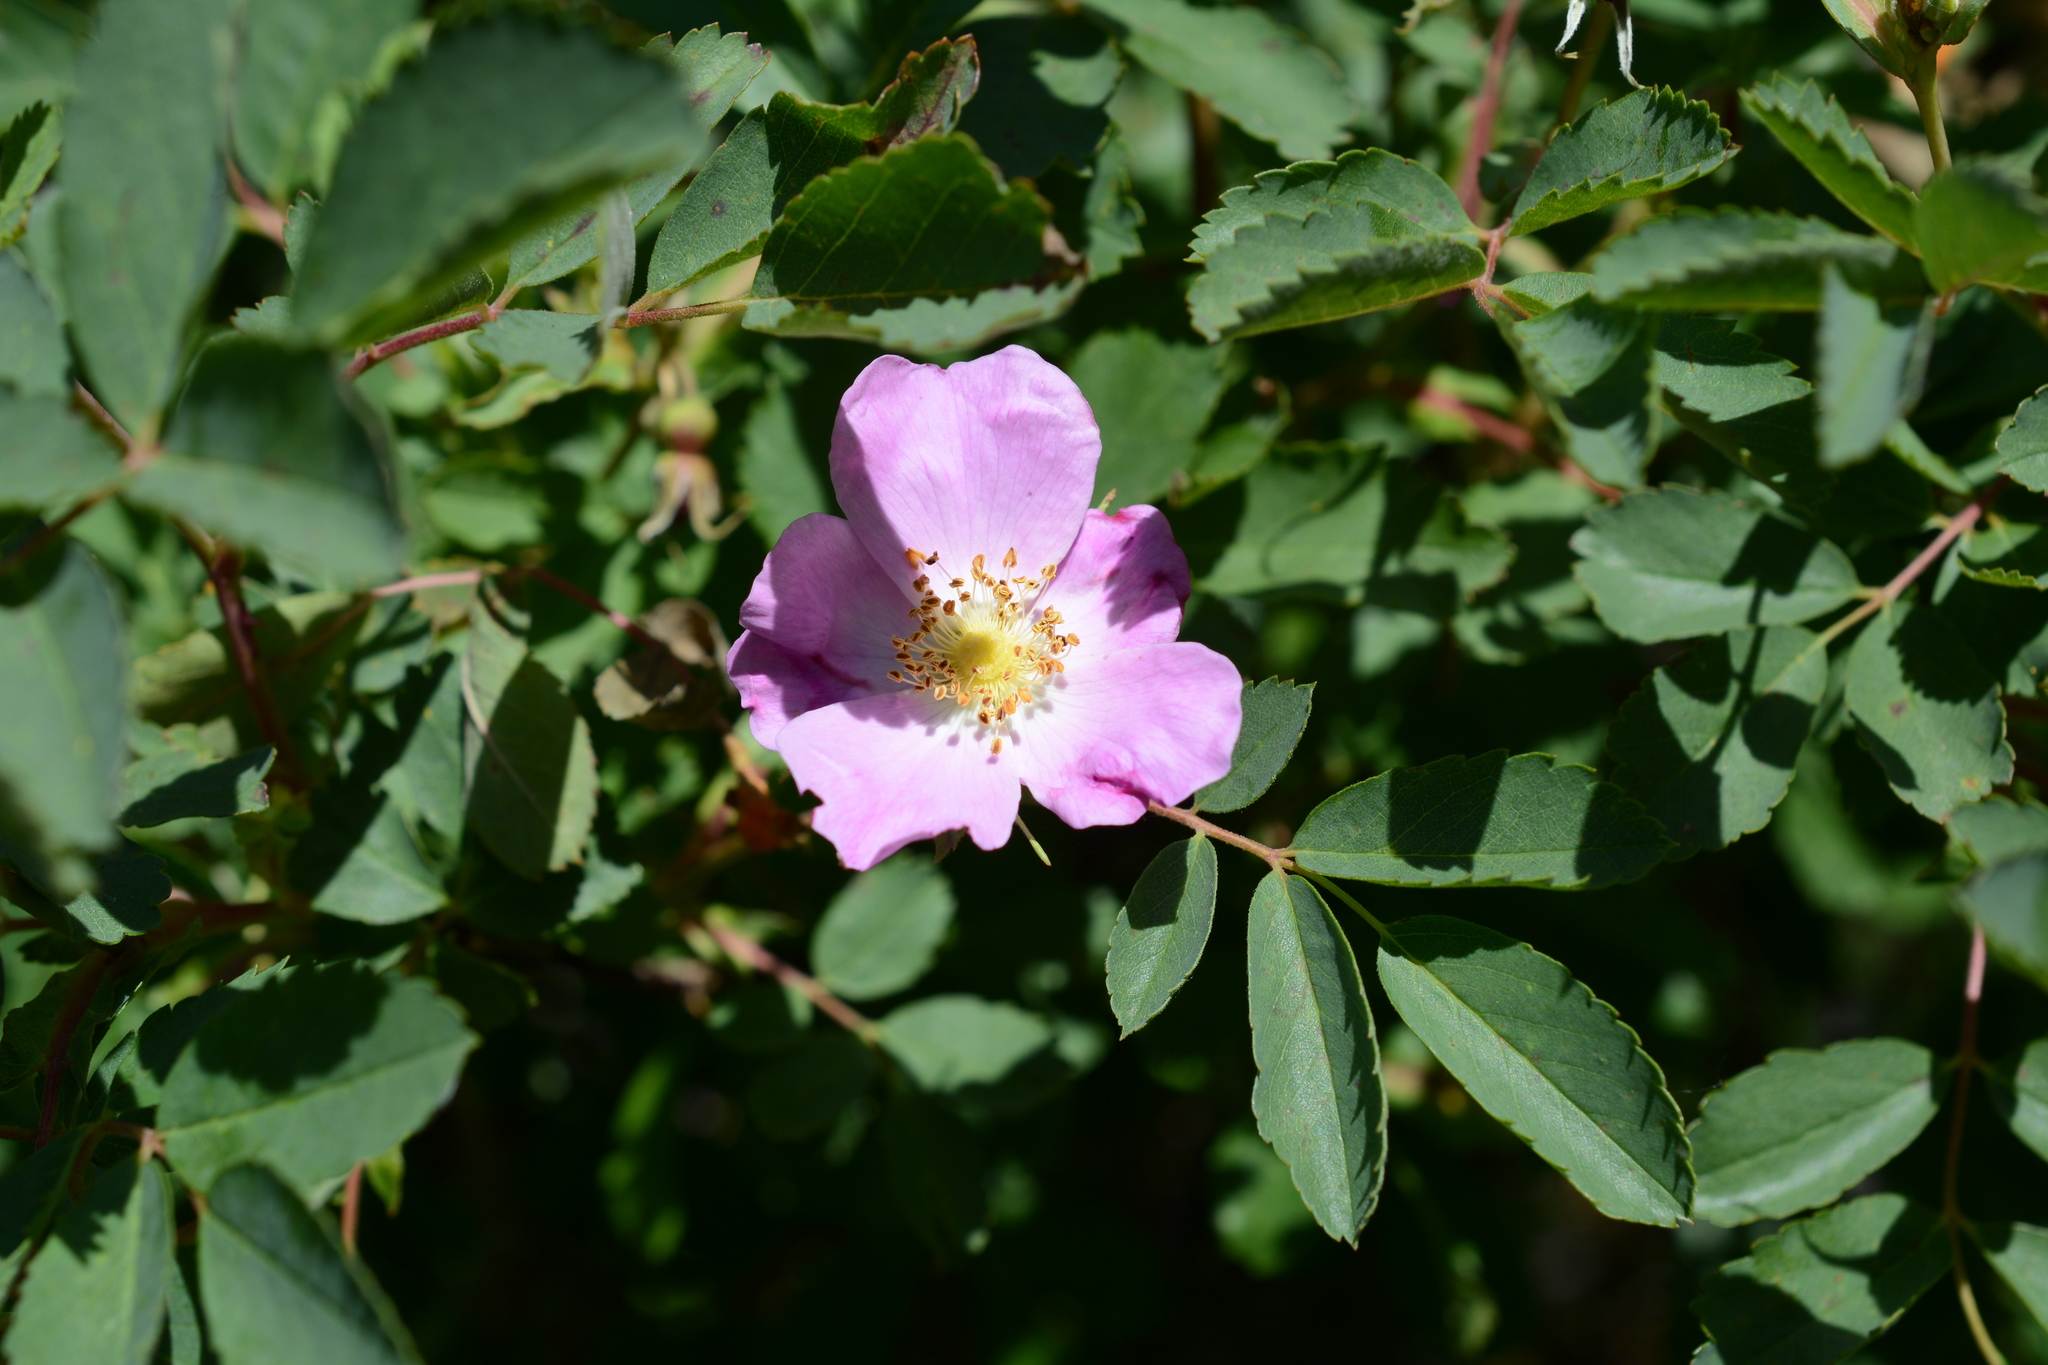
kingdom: Plantae
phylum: Tracheophyta
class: Magnoliopsida
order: Rosales
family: Rosaceae
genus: Rosa
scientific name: Rosa canina
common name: Dog rose
